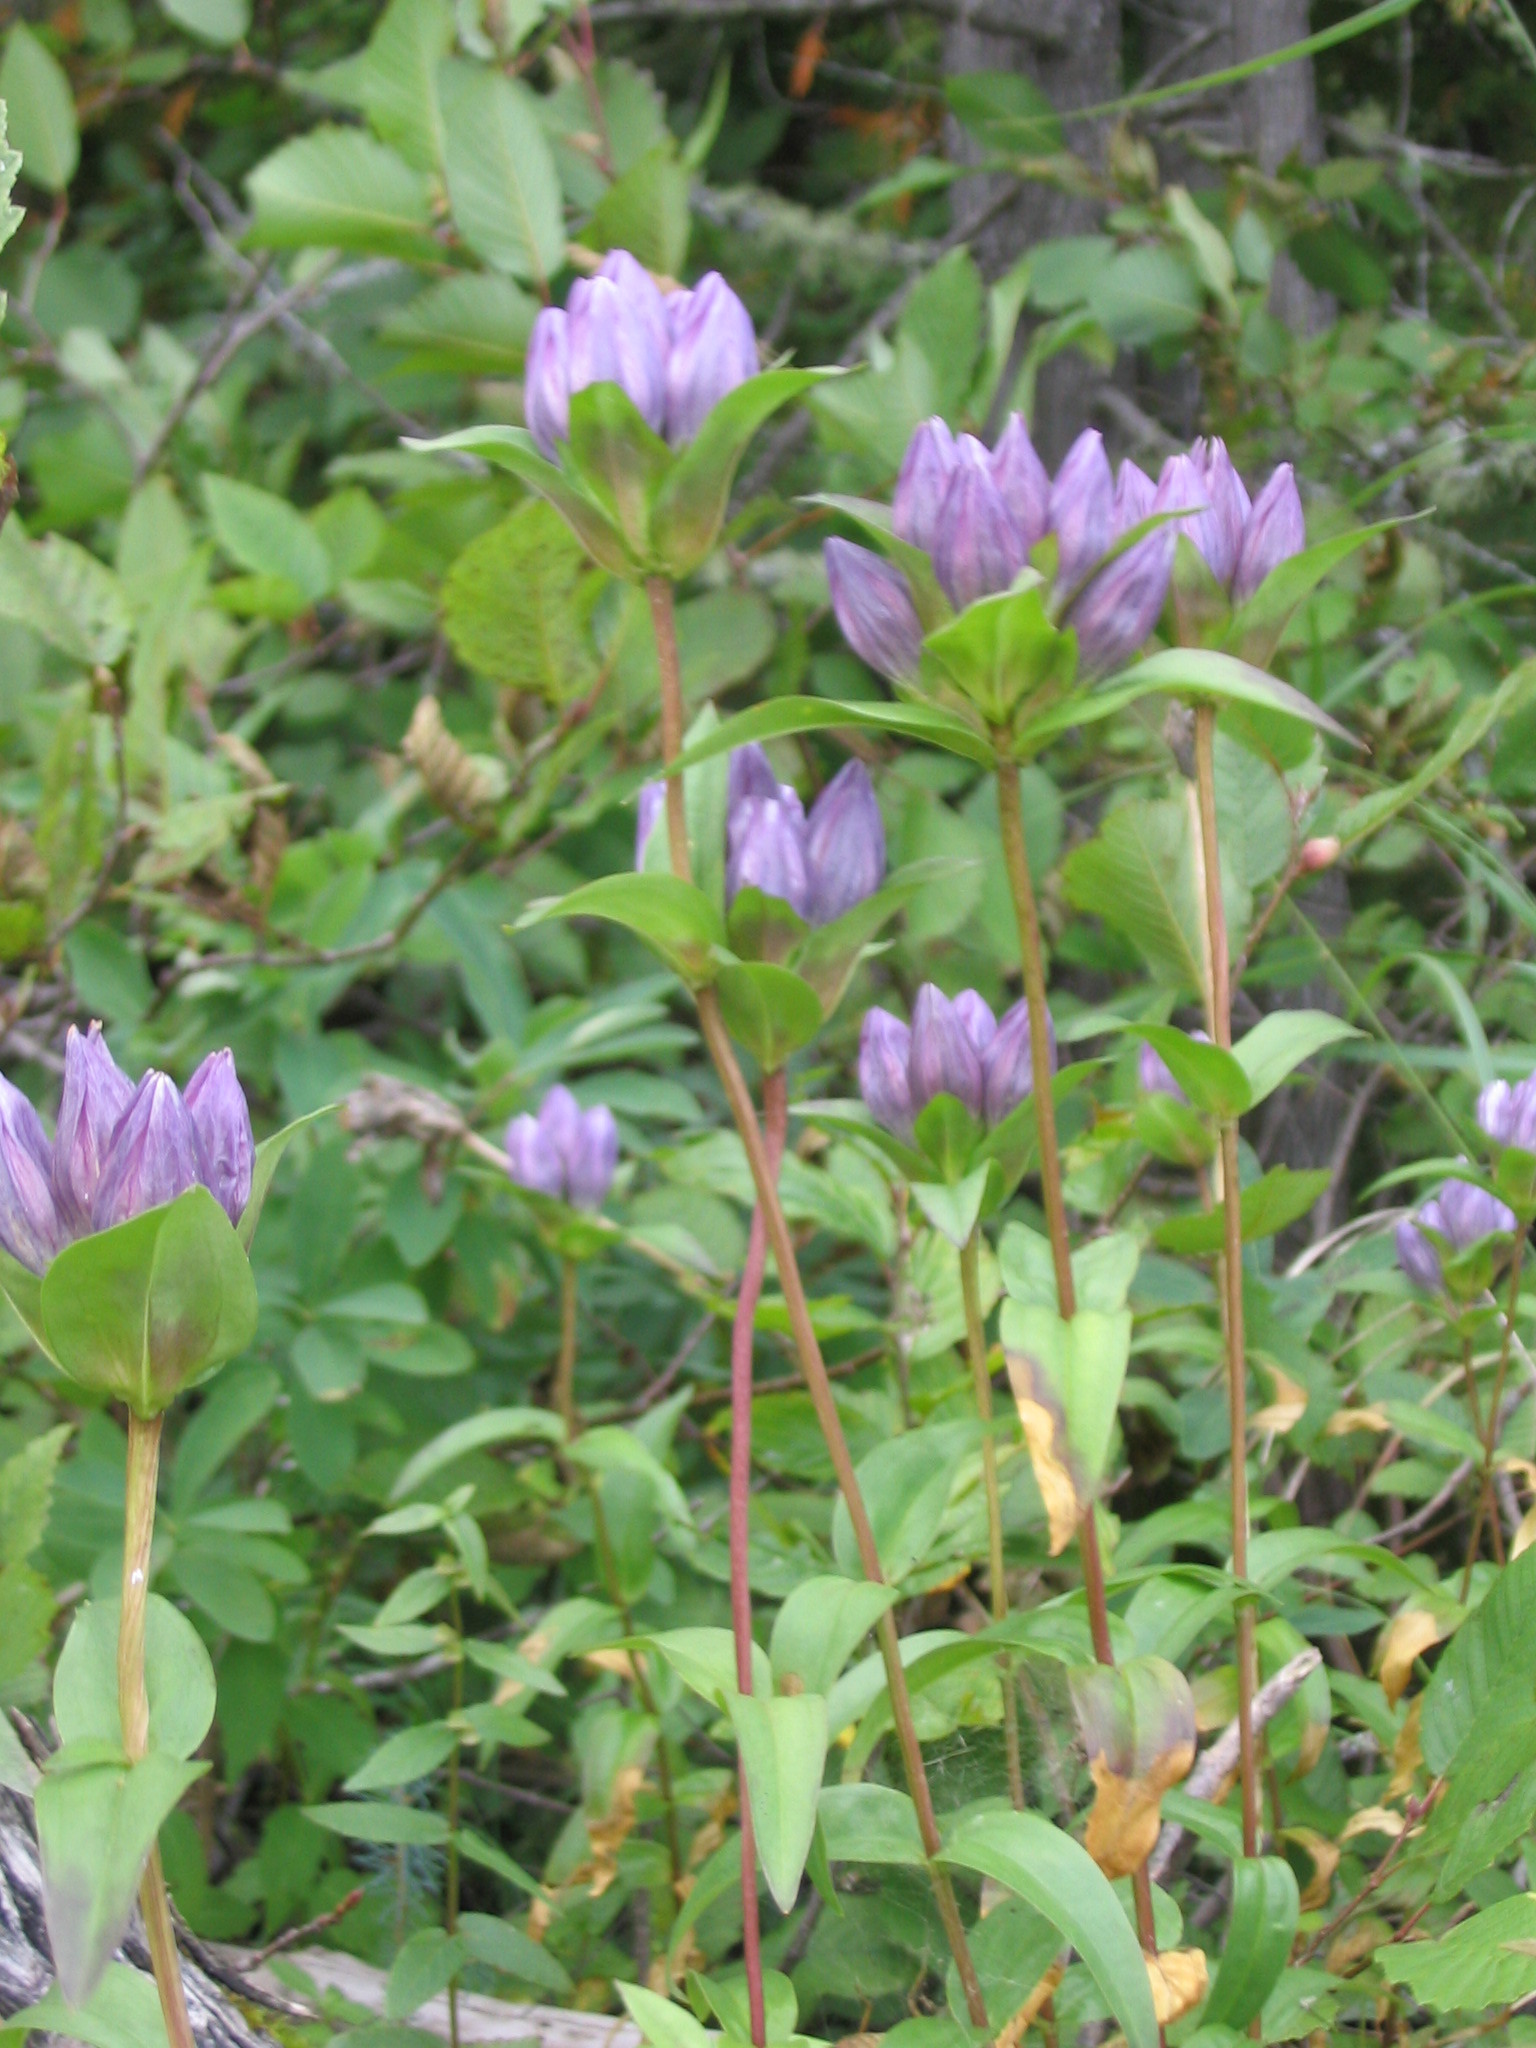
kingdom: Plantae
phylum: Tracheophyta
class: Magnoliopsida
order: Gentianales
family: Gentianaceae
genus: Gentiana
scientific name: Gentiana rubricaulis
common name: Purple-stemmed gentian
